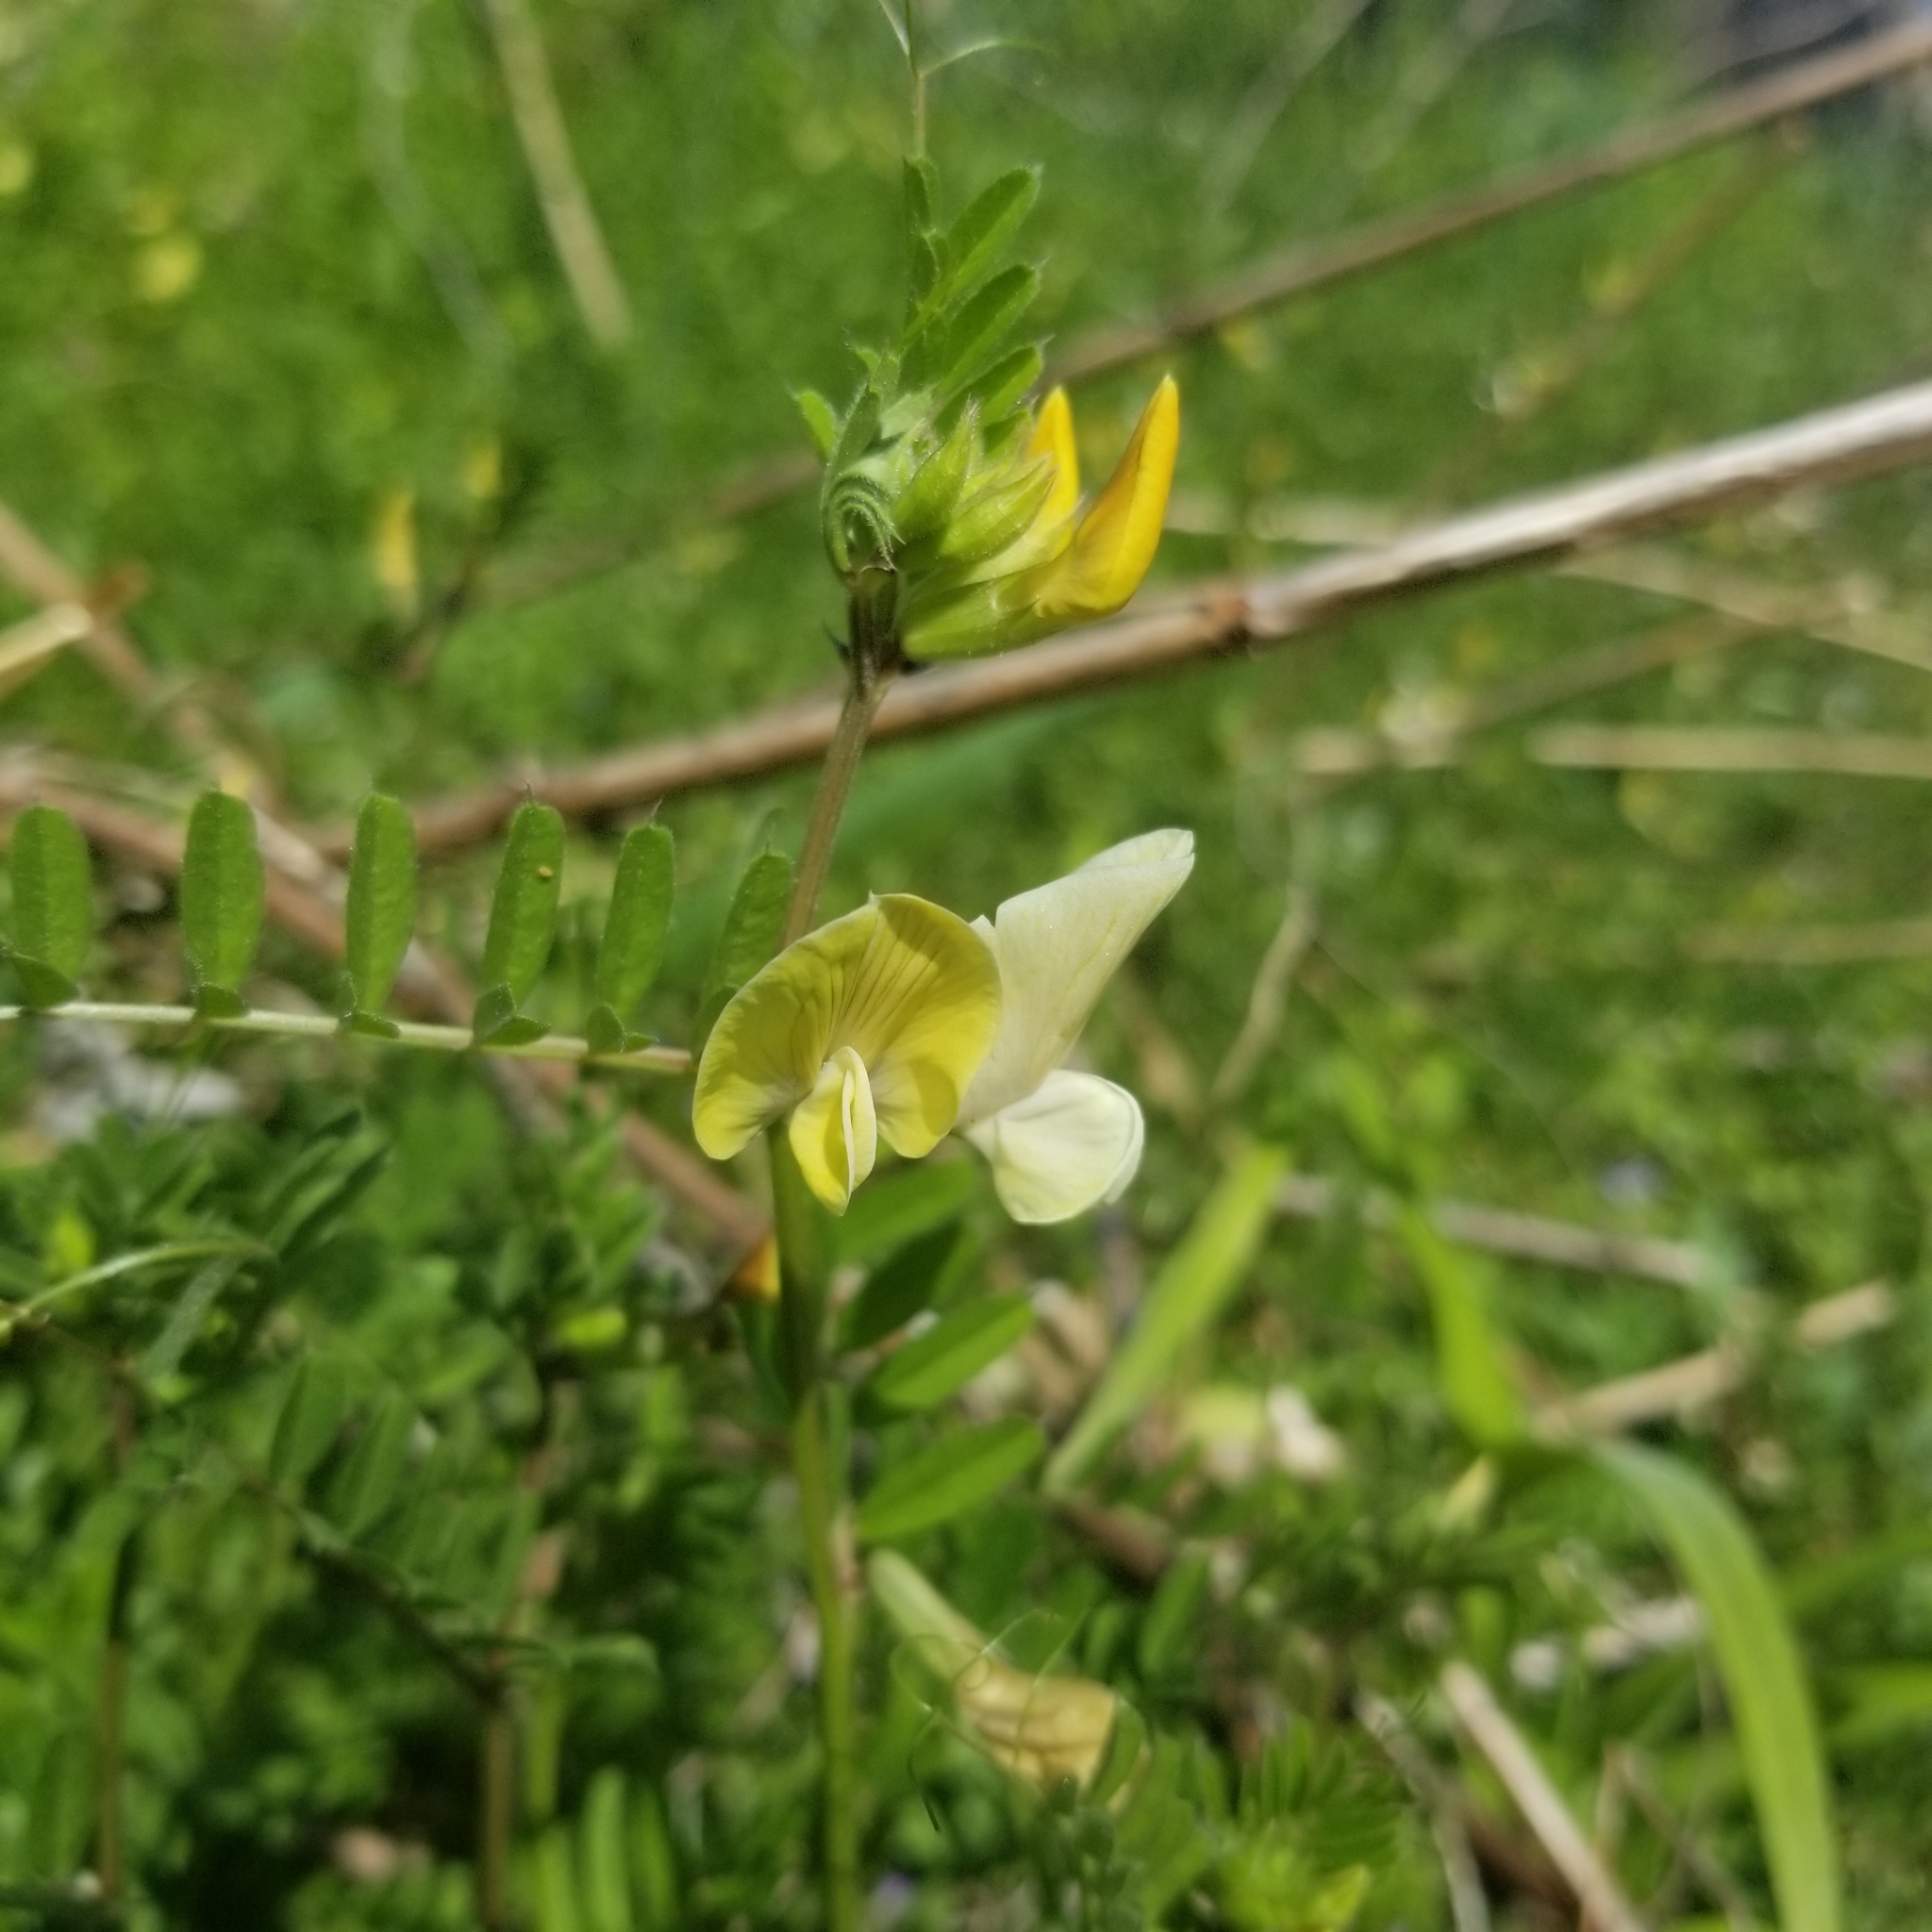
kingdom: Plantae
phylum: Tracheophyta
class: Magnoliopsida
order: Fabales
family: Fabaceae
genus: Vicia
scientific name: Vicia grandiflora
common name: Large yellow vetch
